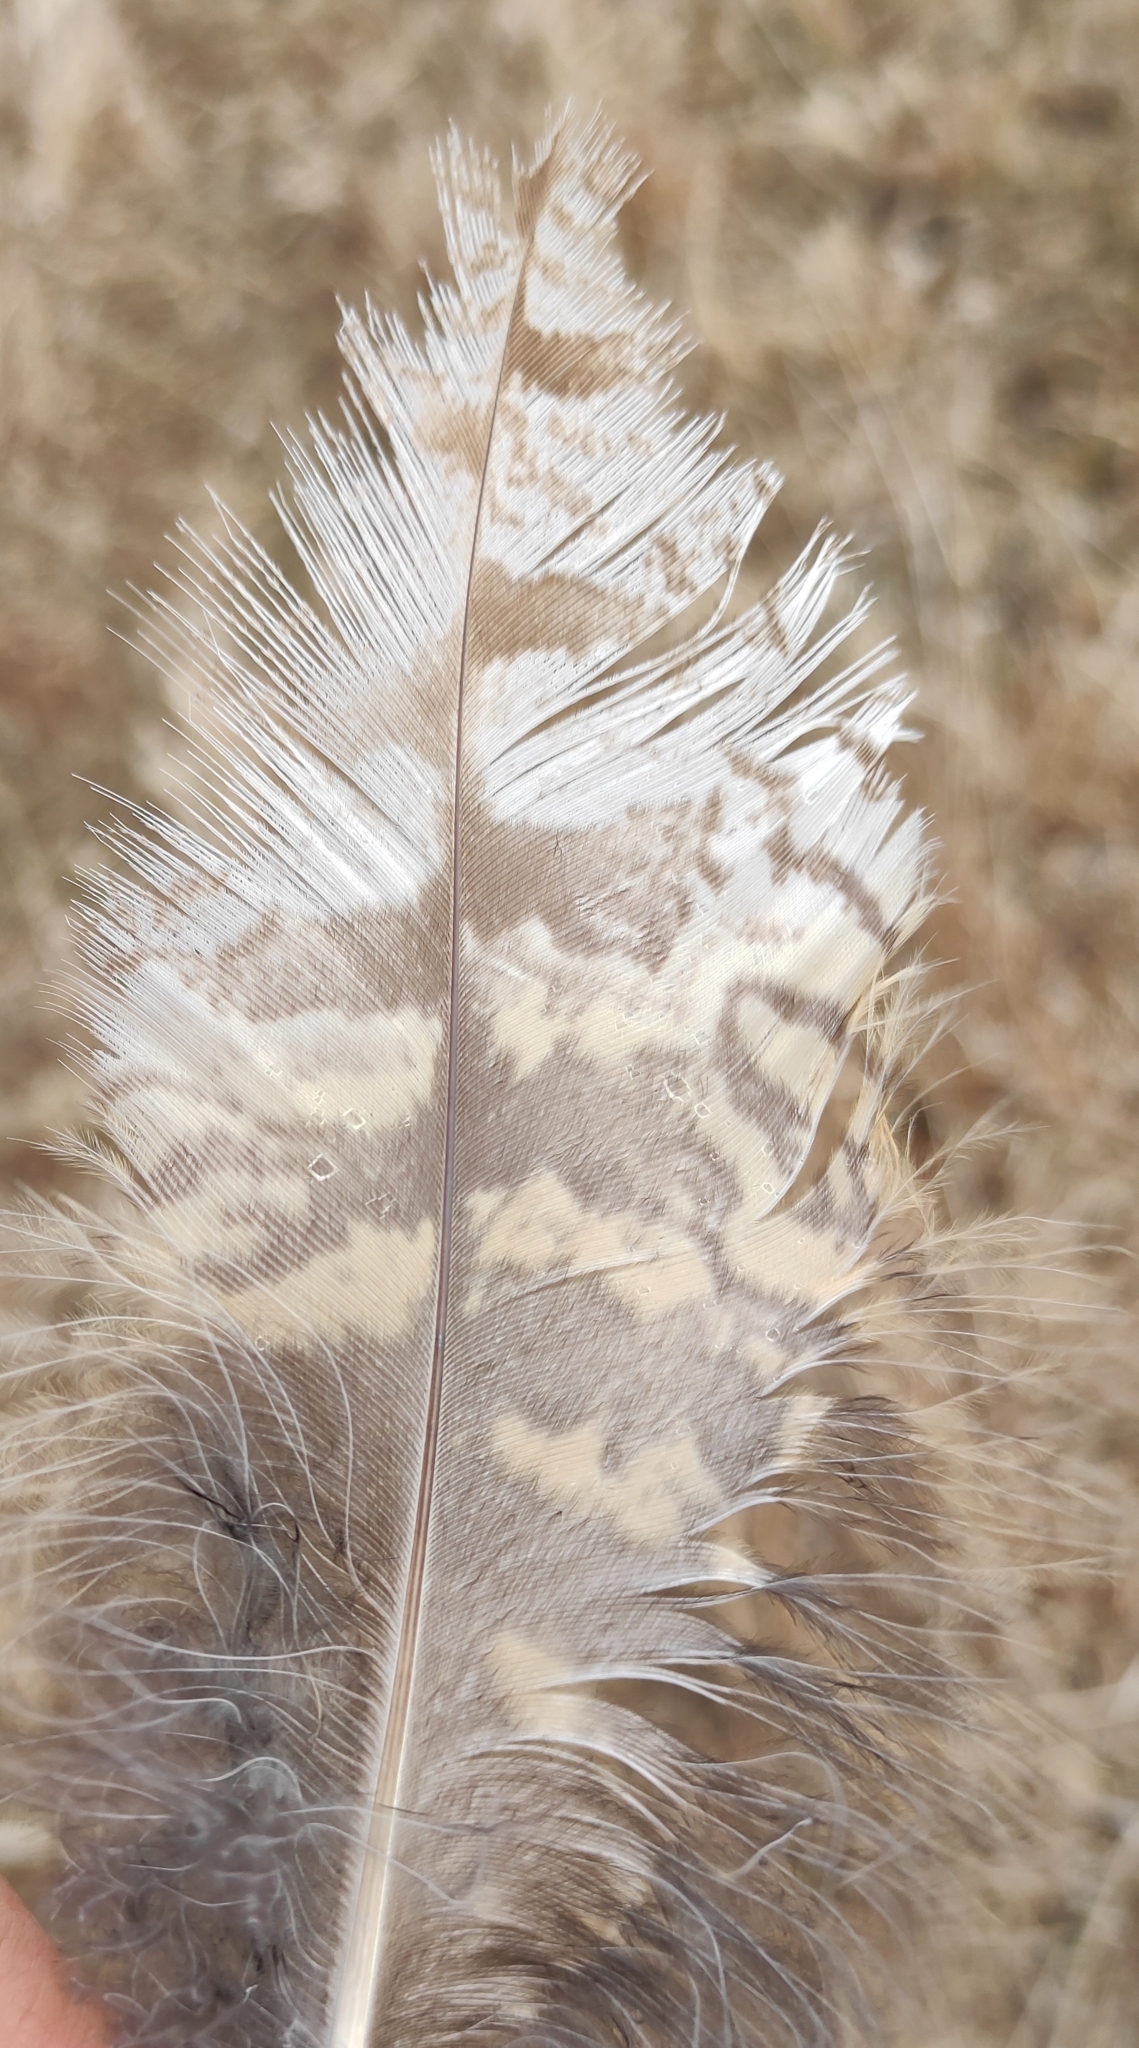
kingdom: Animalia
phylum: Chordata
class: Aves
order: Strigiformes
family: Strigidae
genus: Bubo
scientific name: Bubo bubo
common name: Eurasian eagle-owl
